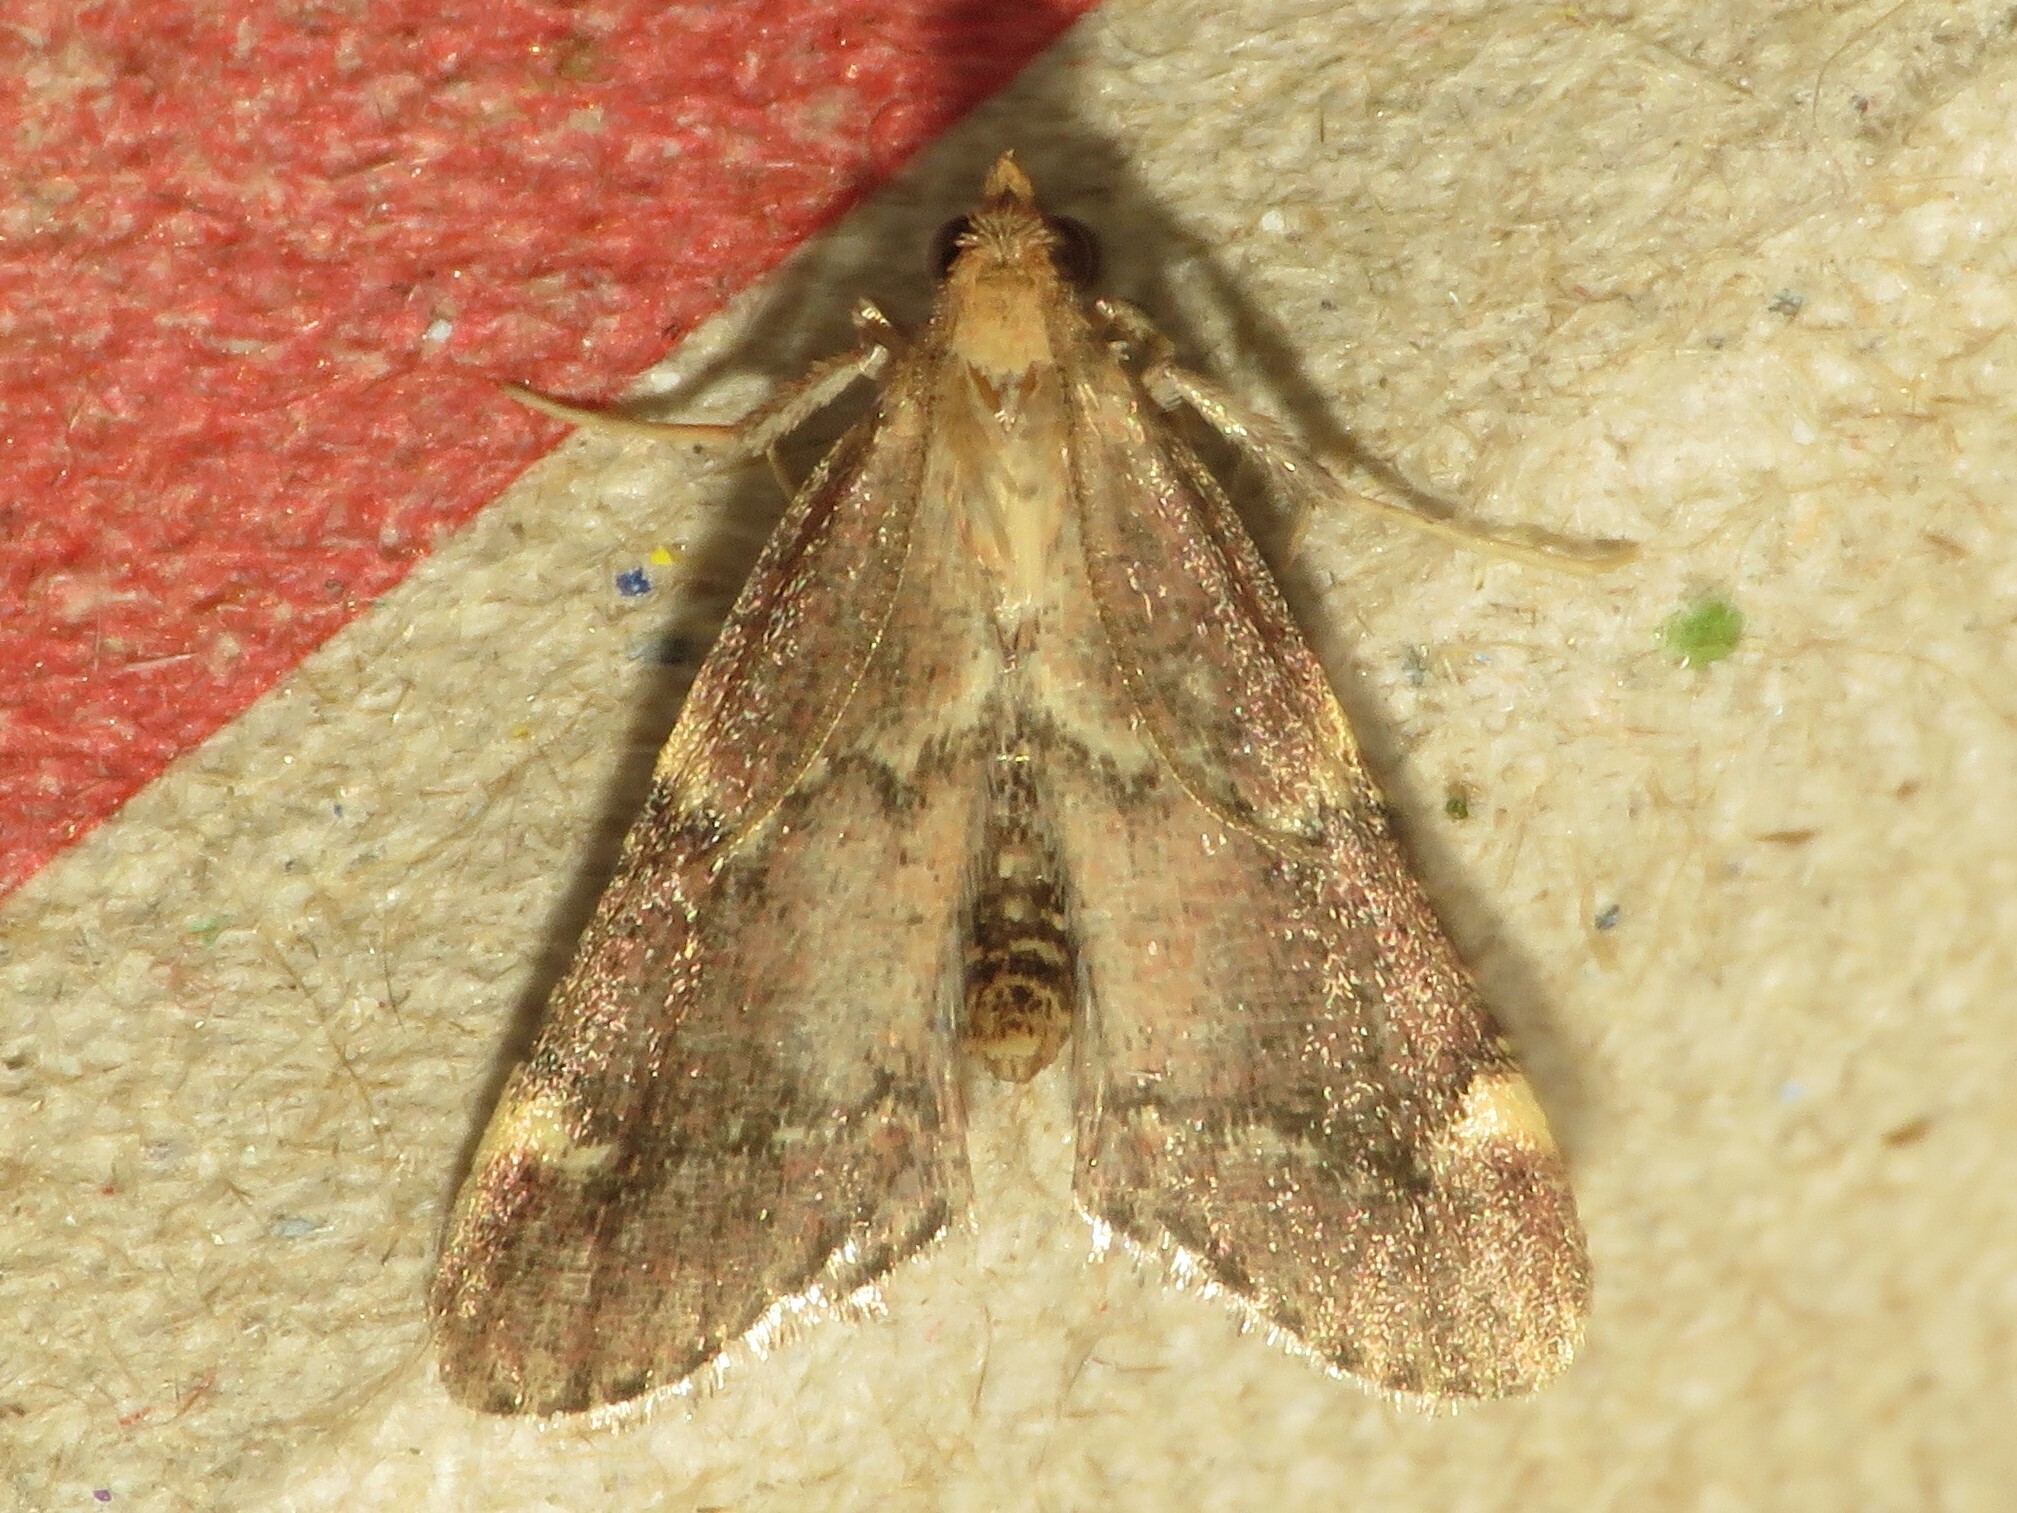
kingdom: Animalia
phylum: Arthropoda
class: Insecta
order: Lepidoptera
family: Pyralidae
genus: Hypsopygia
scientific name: Hypsopygia intermedialis
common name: Red-shawled moth
